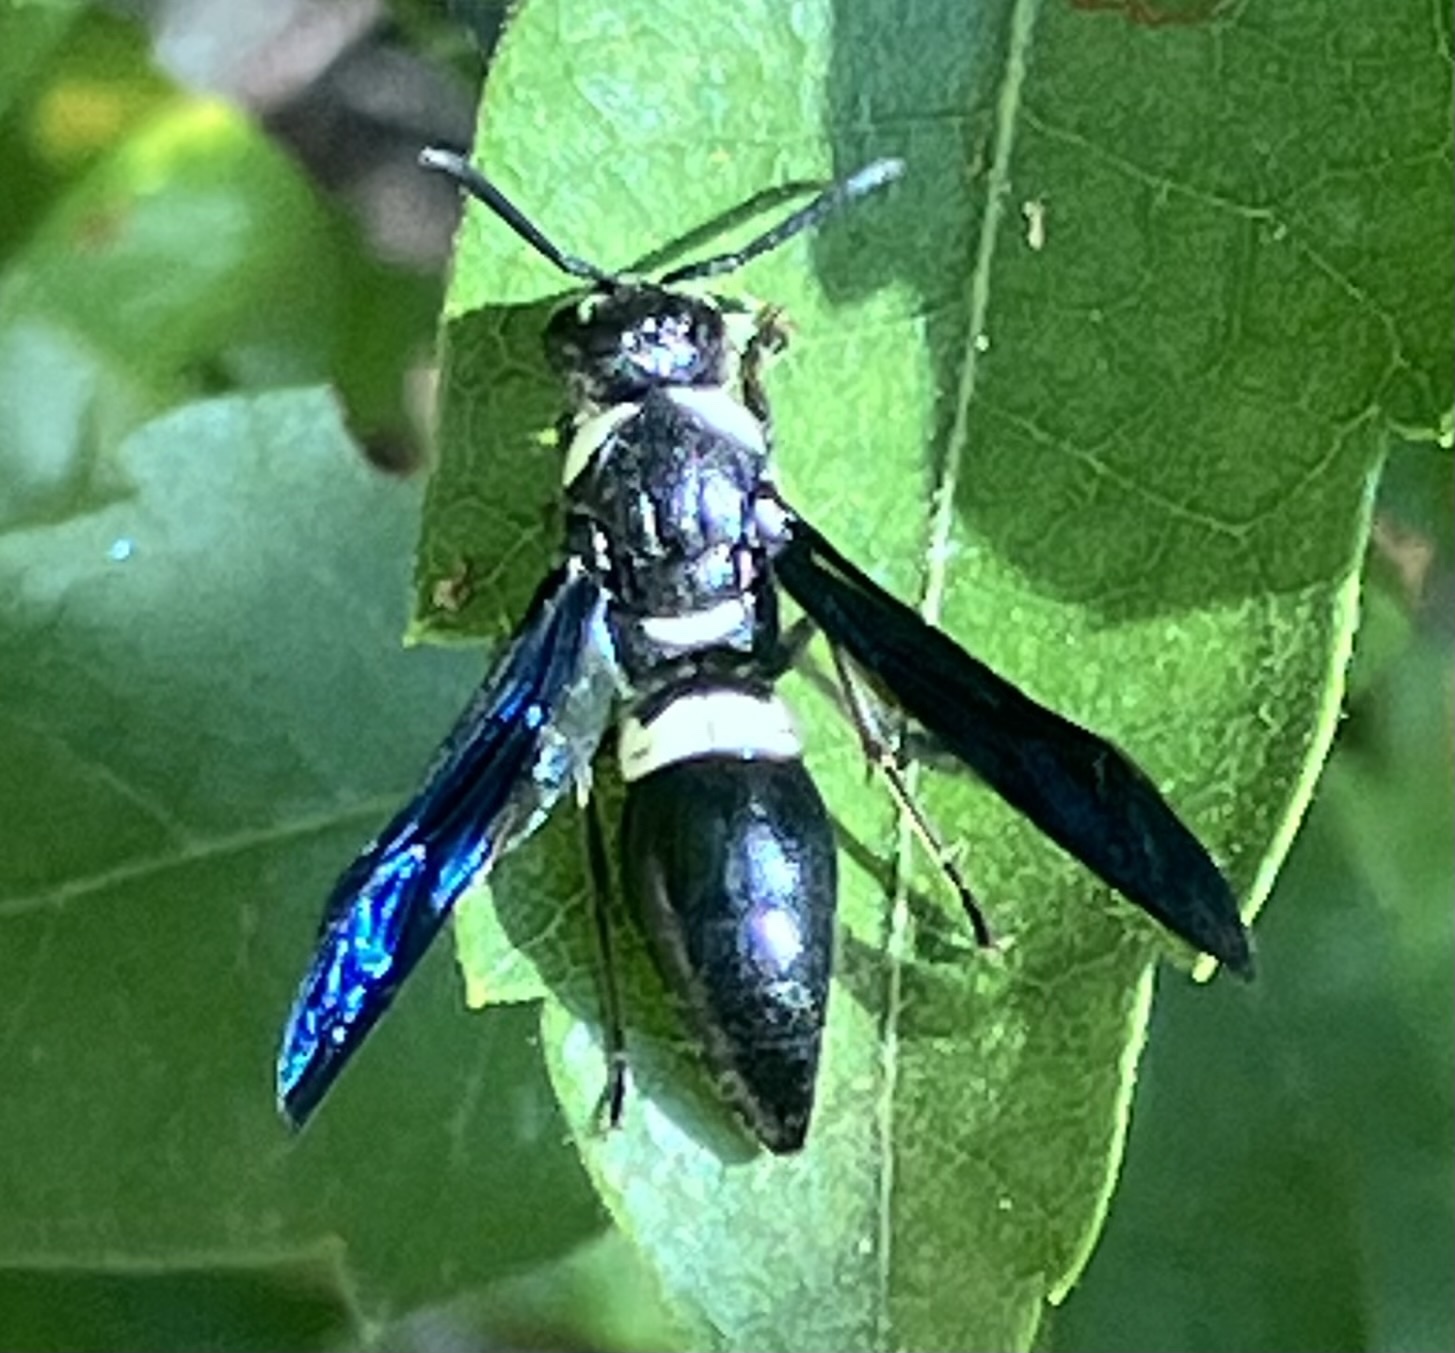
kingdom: Animalia
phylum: Arthropoda
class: Insecta
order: Hymenoptera
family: Eumenidae
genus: Monobia
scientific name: Monobia quadridens
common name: Four-toothed mason wasp
